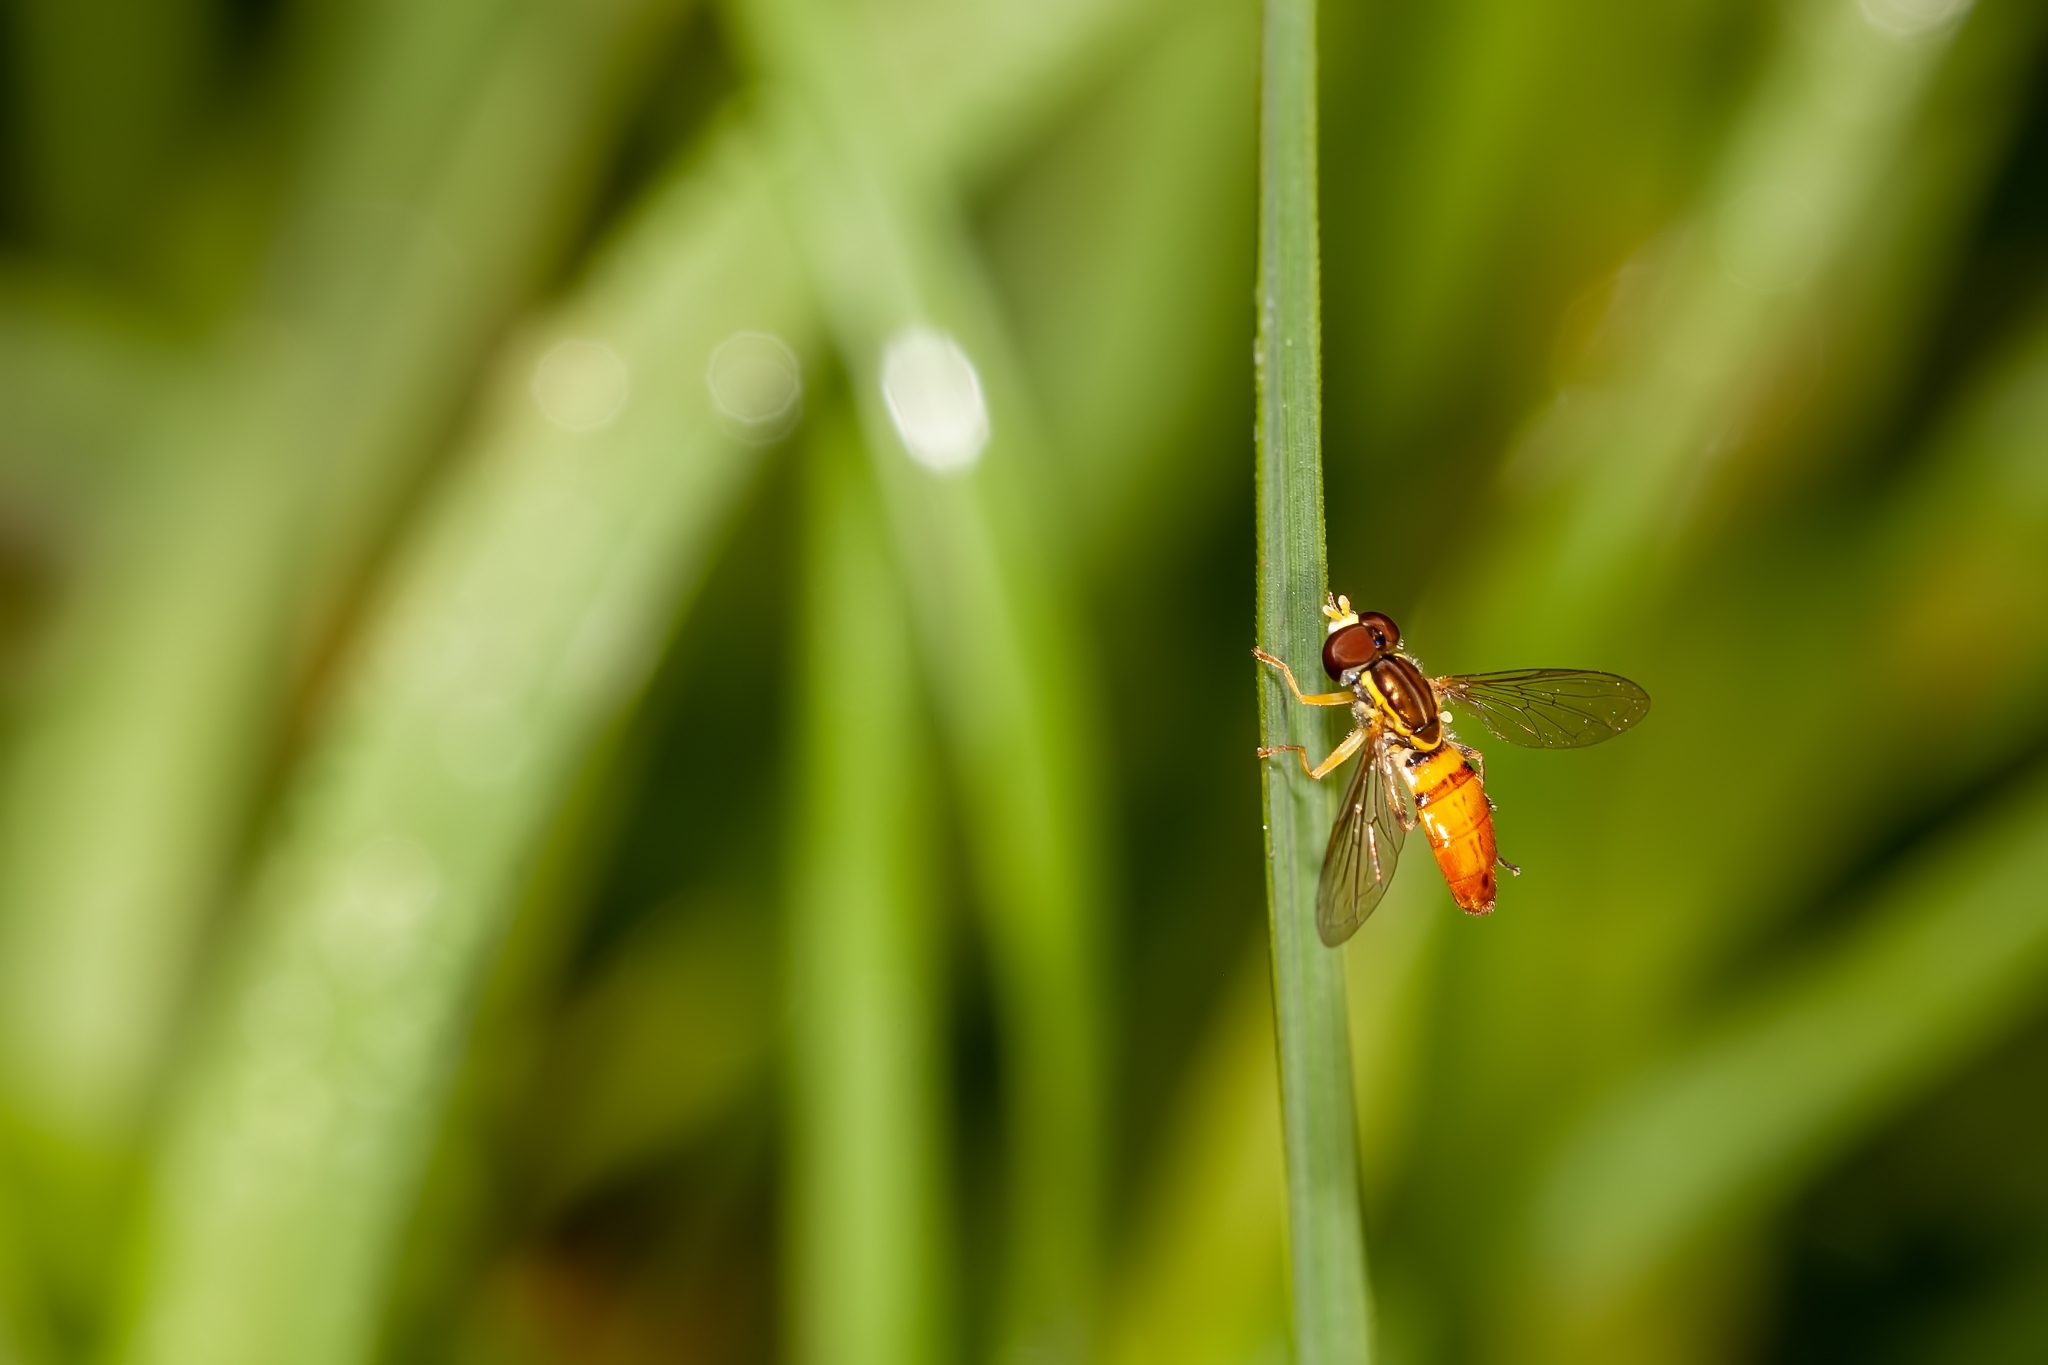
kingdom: Animalia
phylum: Arthropoda
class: Insecta
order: Diptera
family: Syrphidae
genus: Toxomerus
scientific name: Toxomerus floralis
